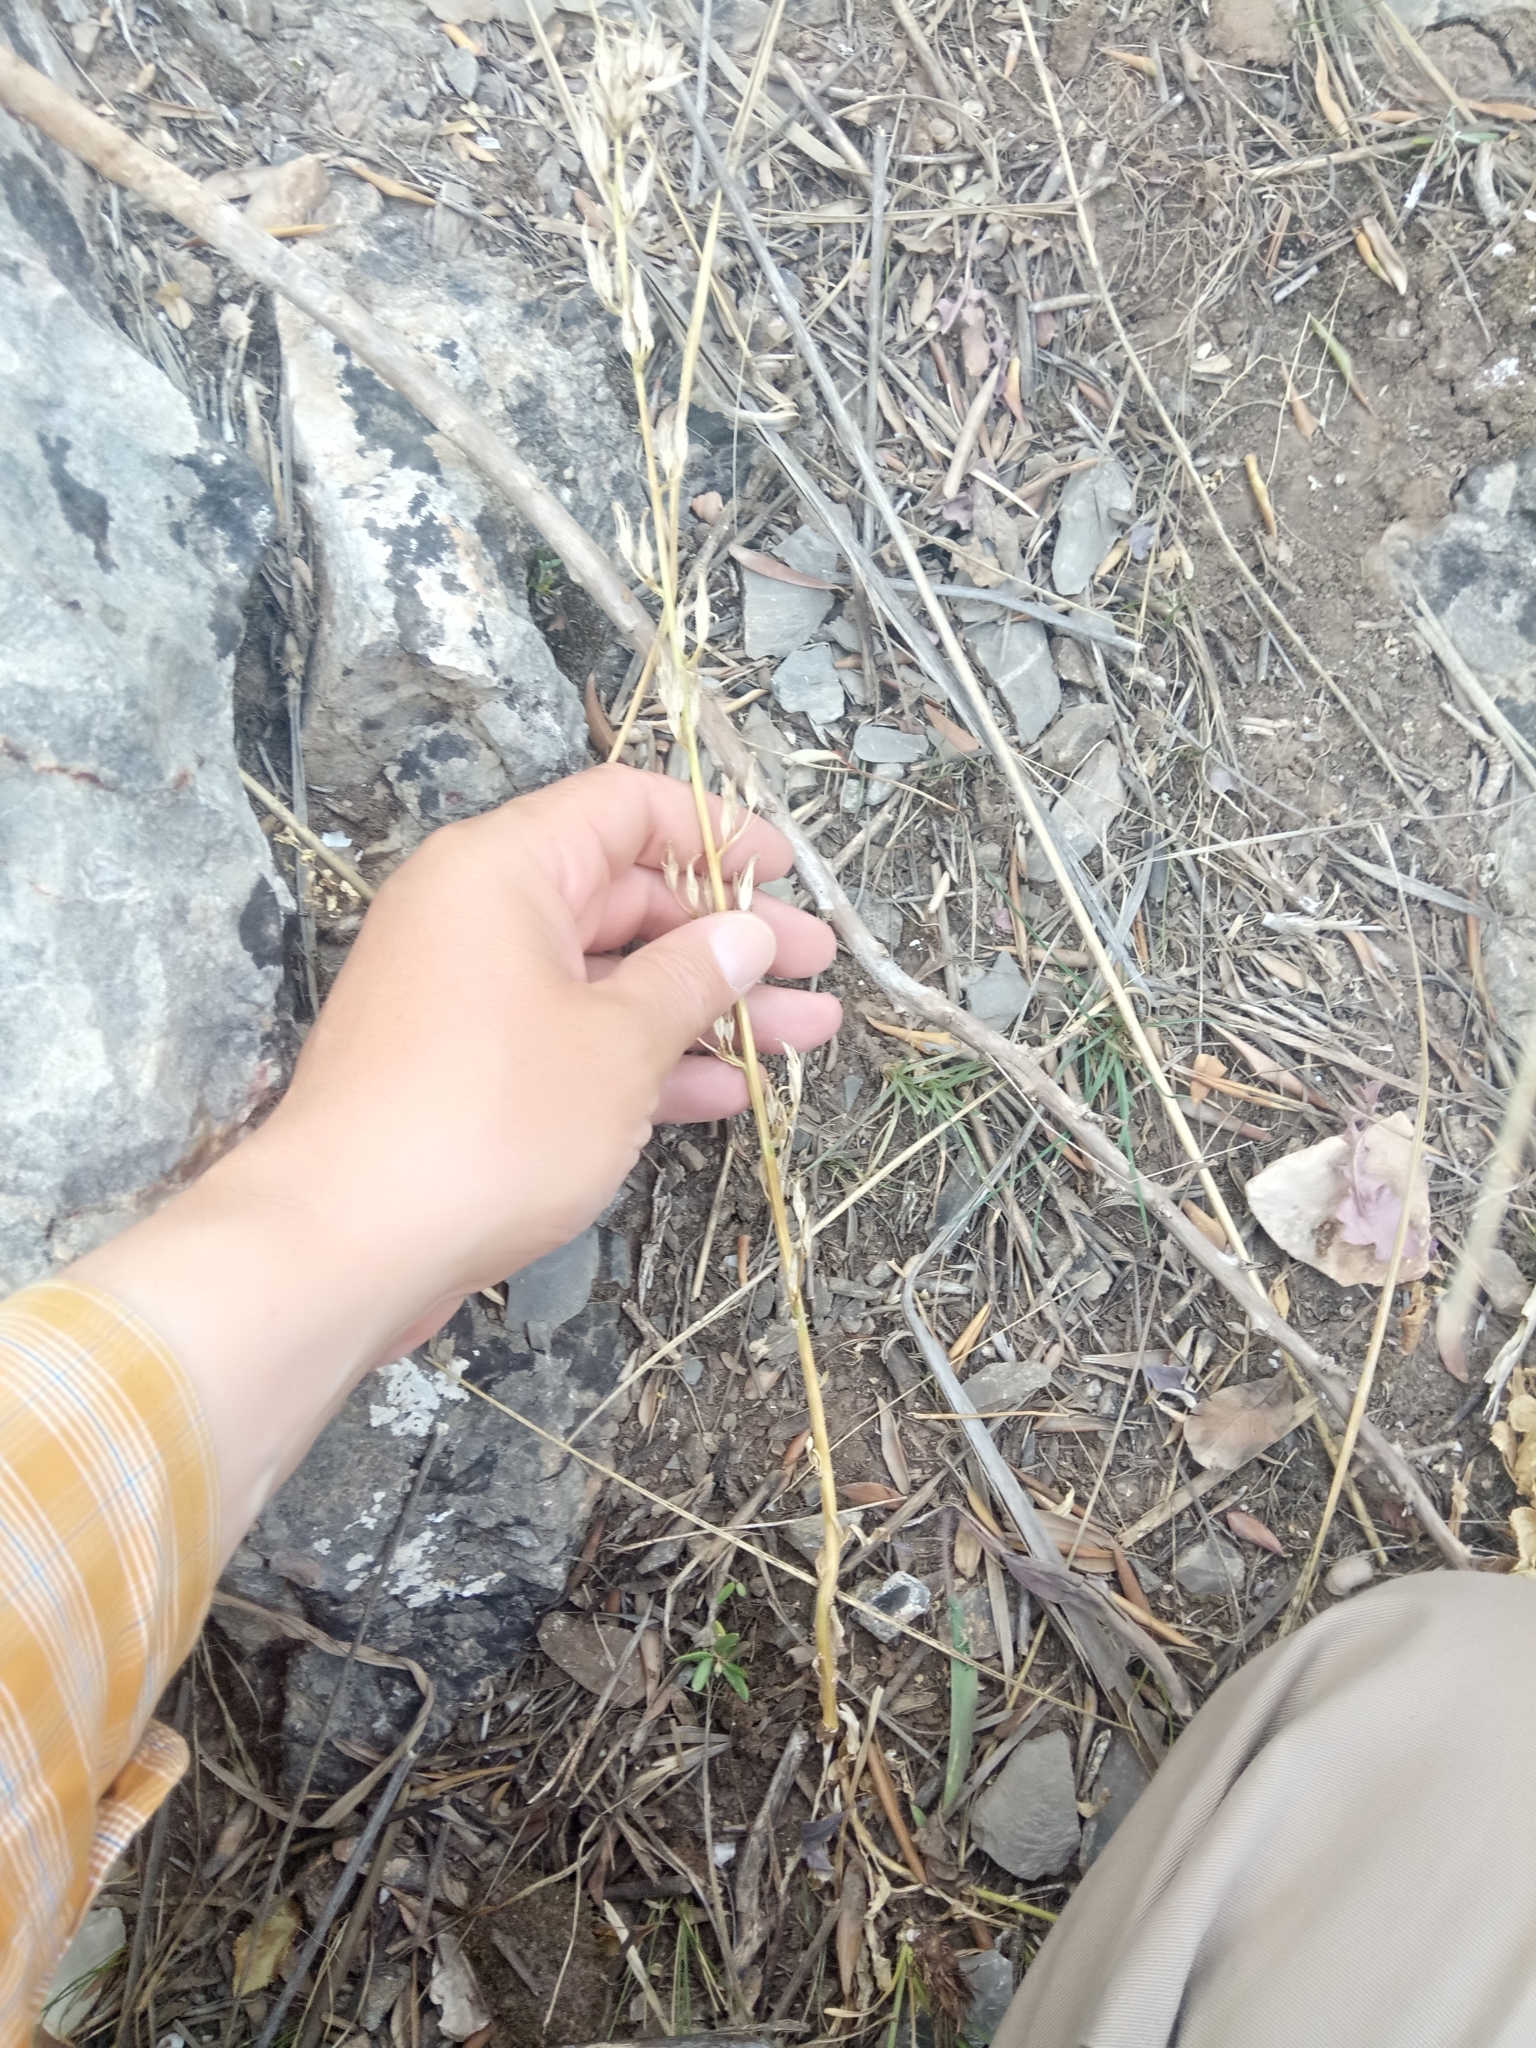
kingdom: Plantae
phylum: Tracheophyta
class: Magnoliopsida
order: Asterales
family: Campanulaceae
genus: Campanula
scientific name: Campanula rapunculus
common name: Rampion bellflower
